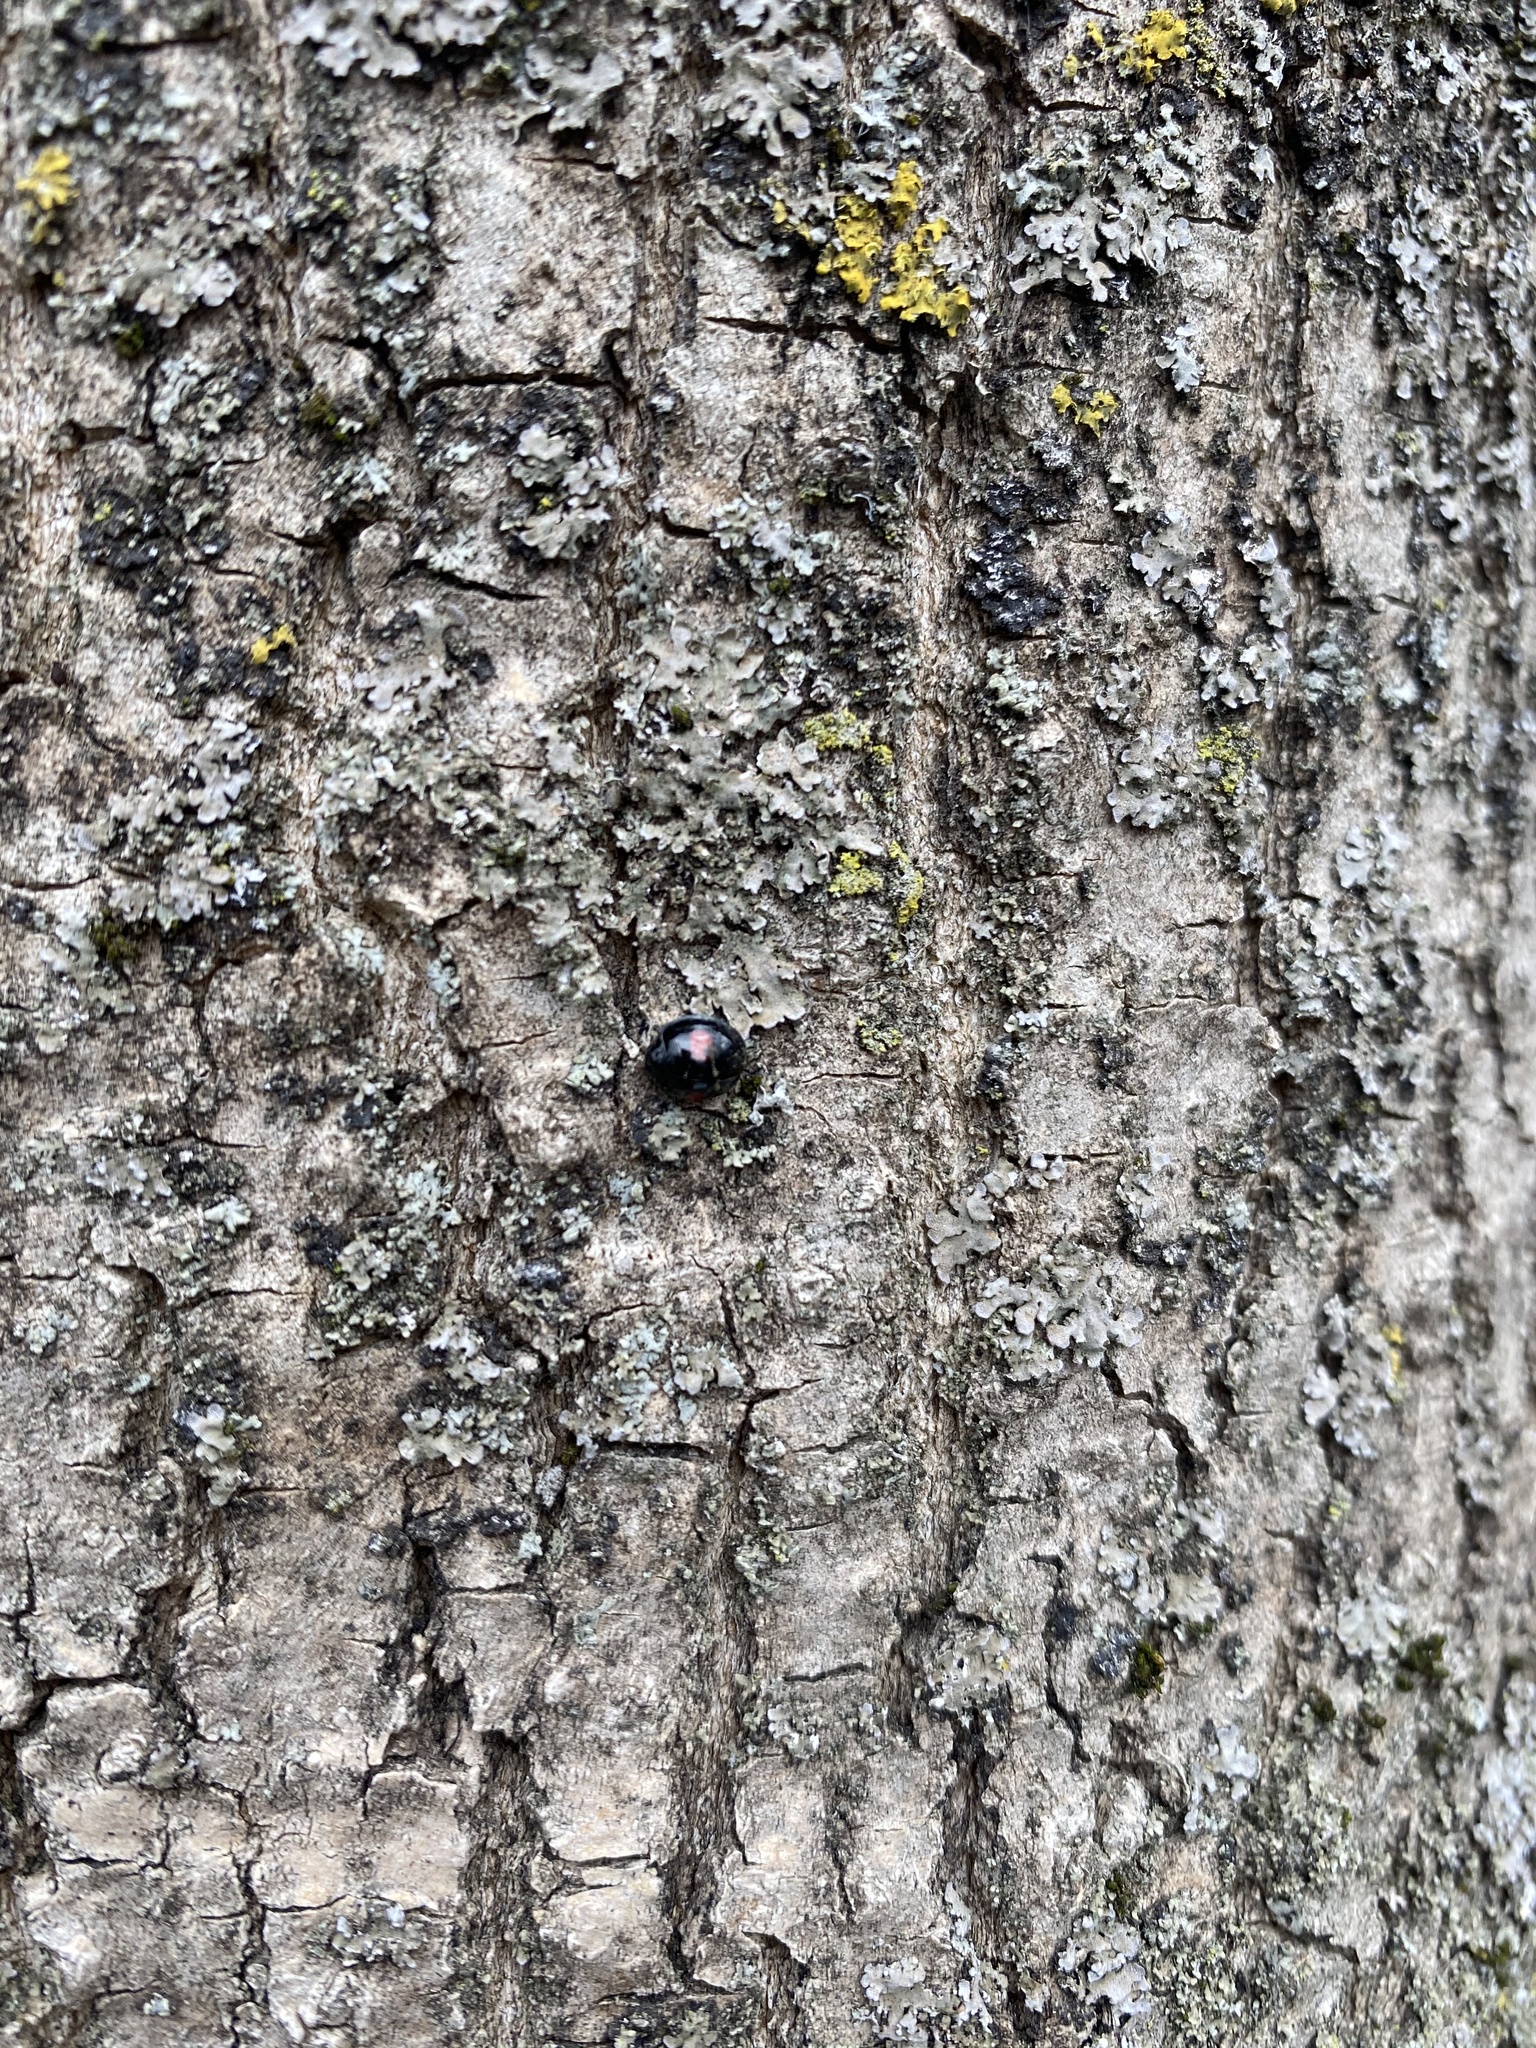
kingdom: Animalia
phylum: Arthropoda
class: Insecta
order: Coleoptera
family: Coccinellidae
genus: Chilocorus
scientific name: Chilocorus renipustulatus
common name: Kidney-spot ladybird
